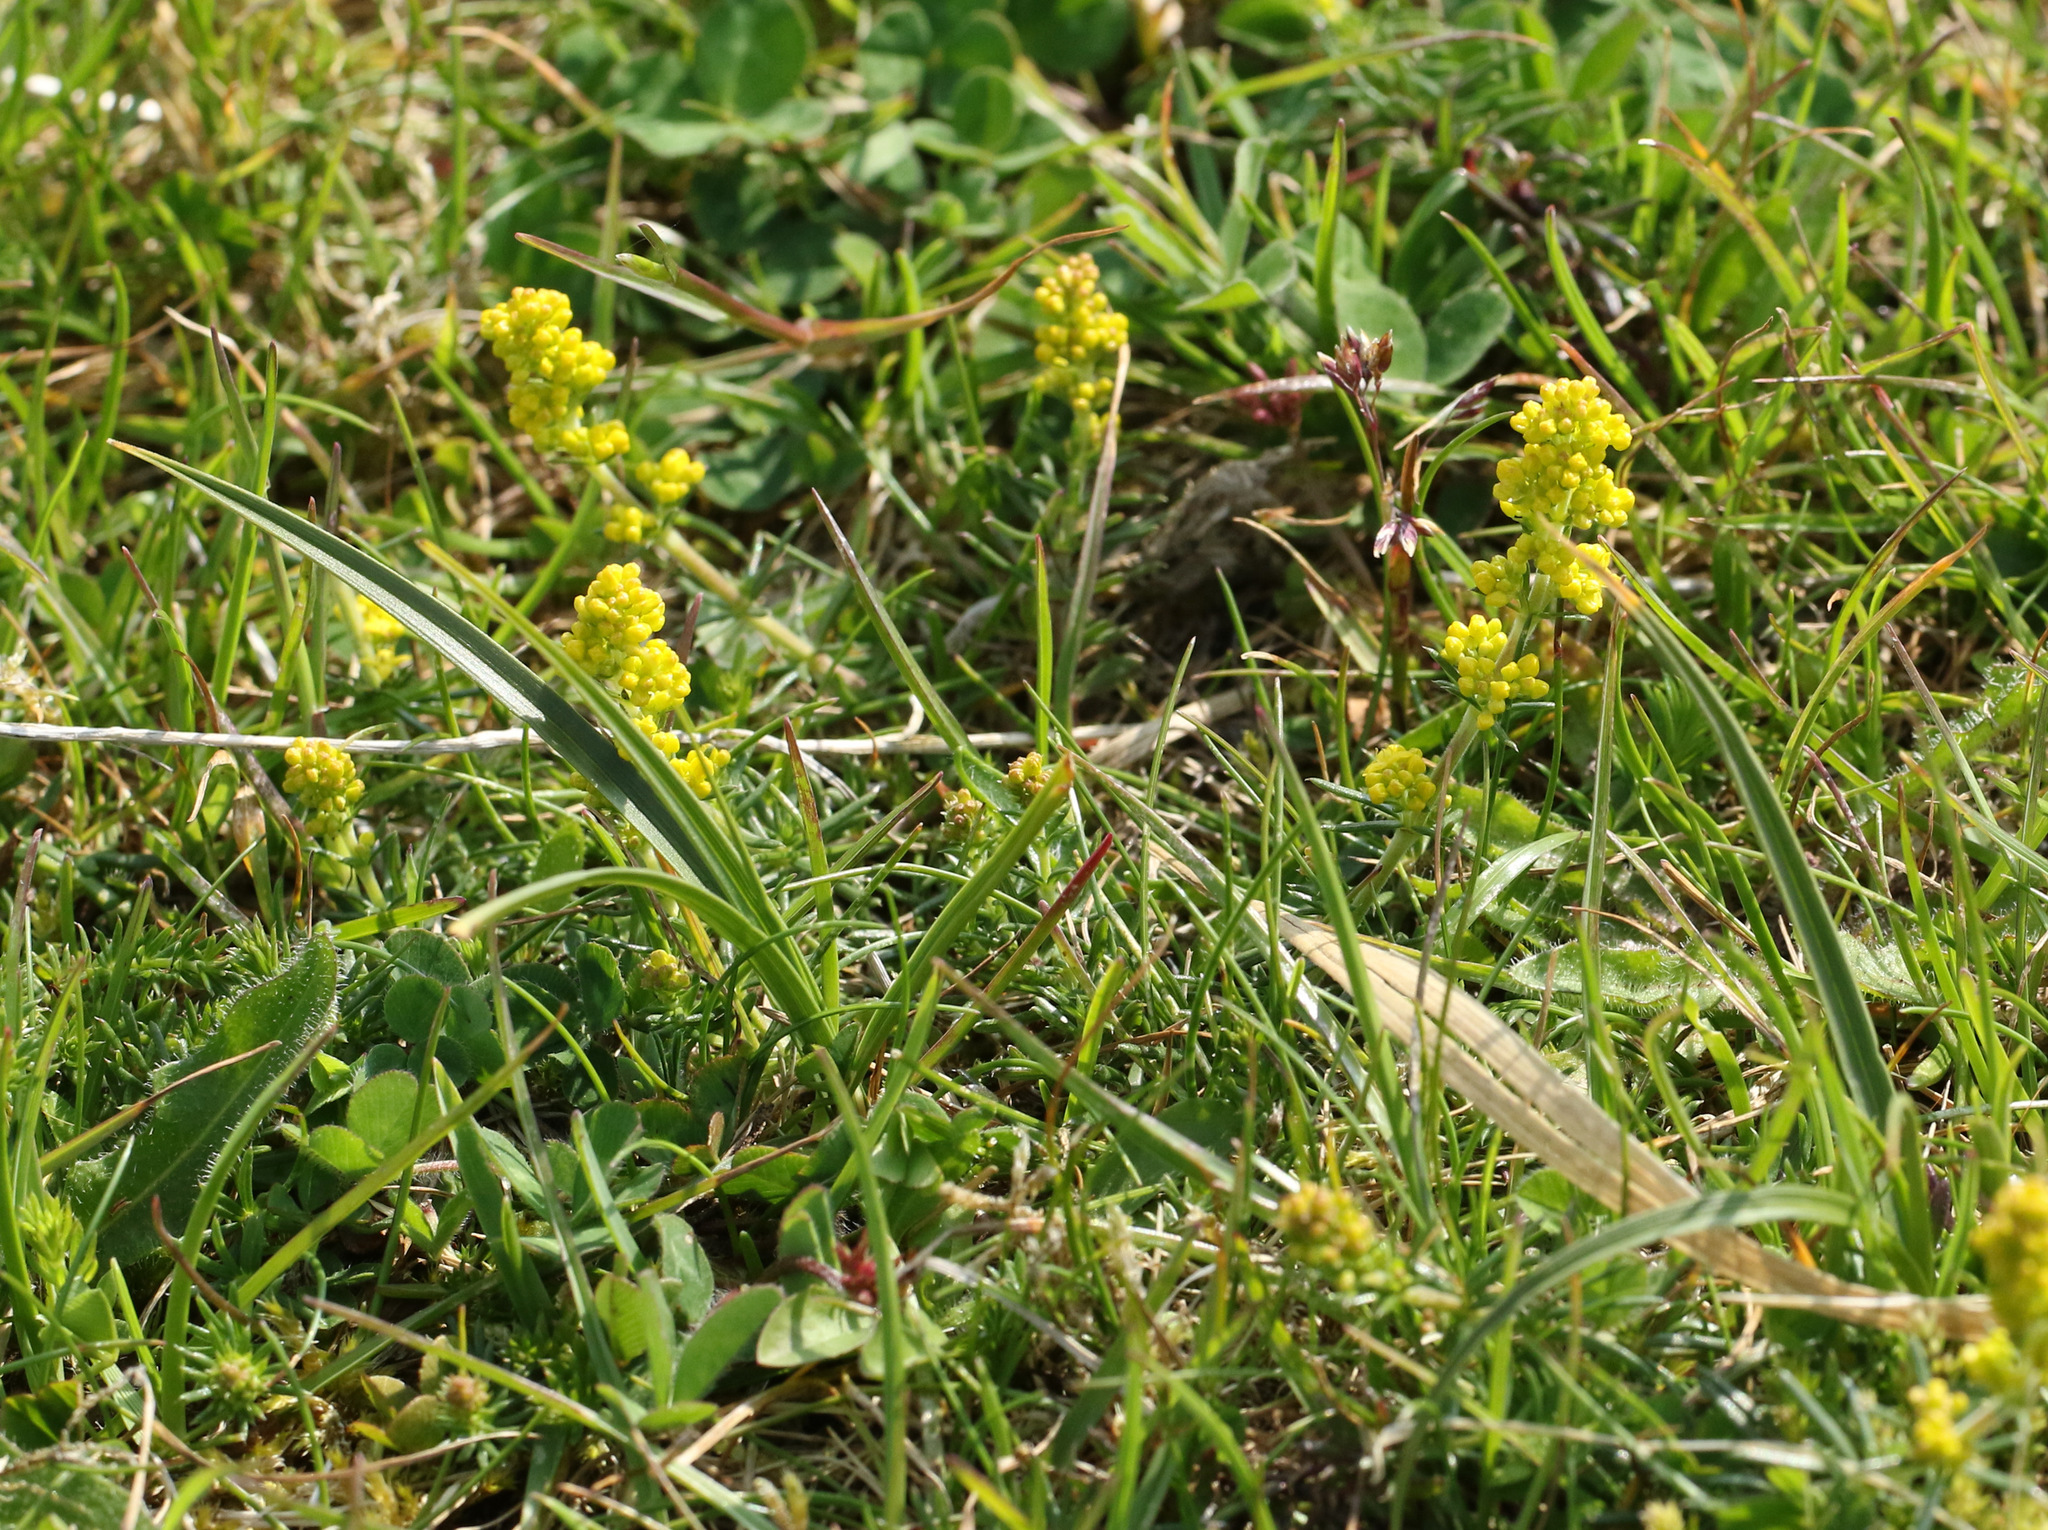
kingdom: Plantae
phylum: Tracheophyta
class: Magnoliopsida
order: Gentianales
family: Rubiaceae
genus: Galium
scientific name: Galium verum
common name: Lady's bedstraw
